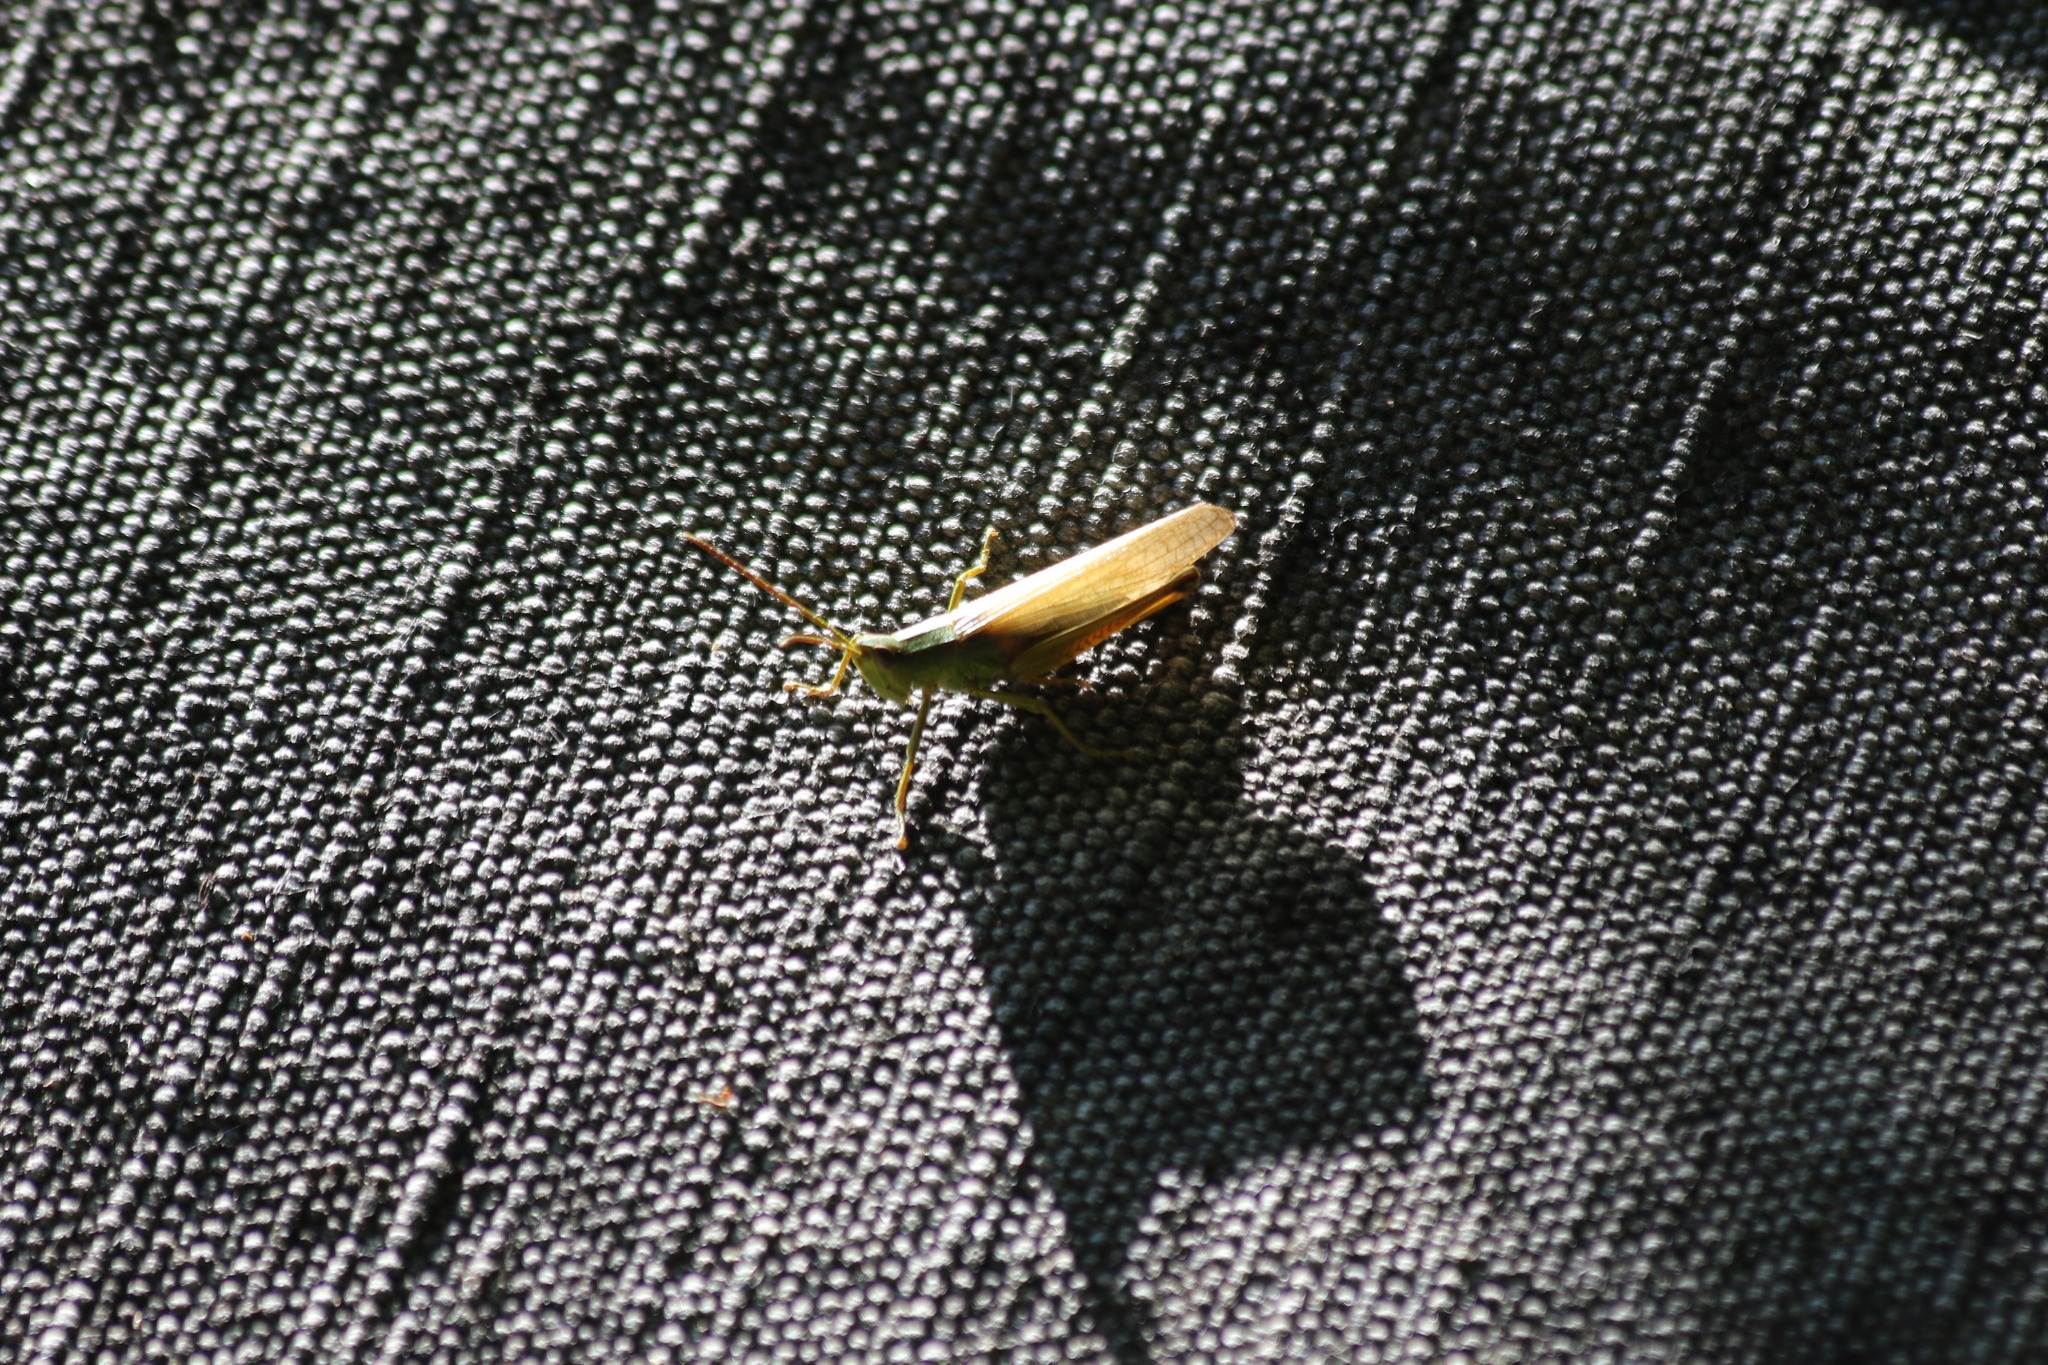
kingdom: Animalia
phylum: Arthropoda
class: Insecta
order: Orthoptera
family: Acrididae
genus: Chrysochraon
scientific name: Chrysochraon dispar
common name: Large gold grasshopper
